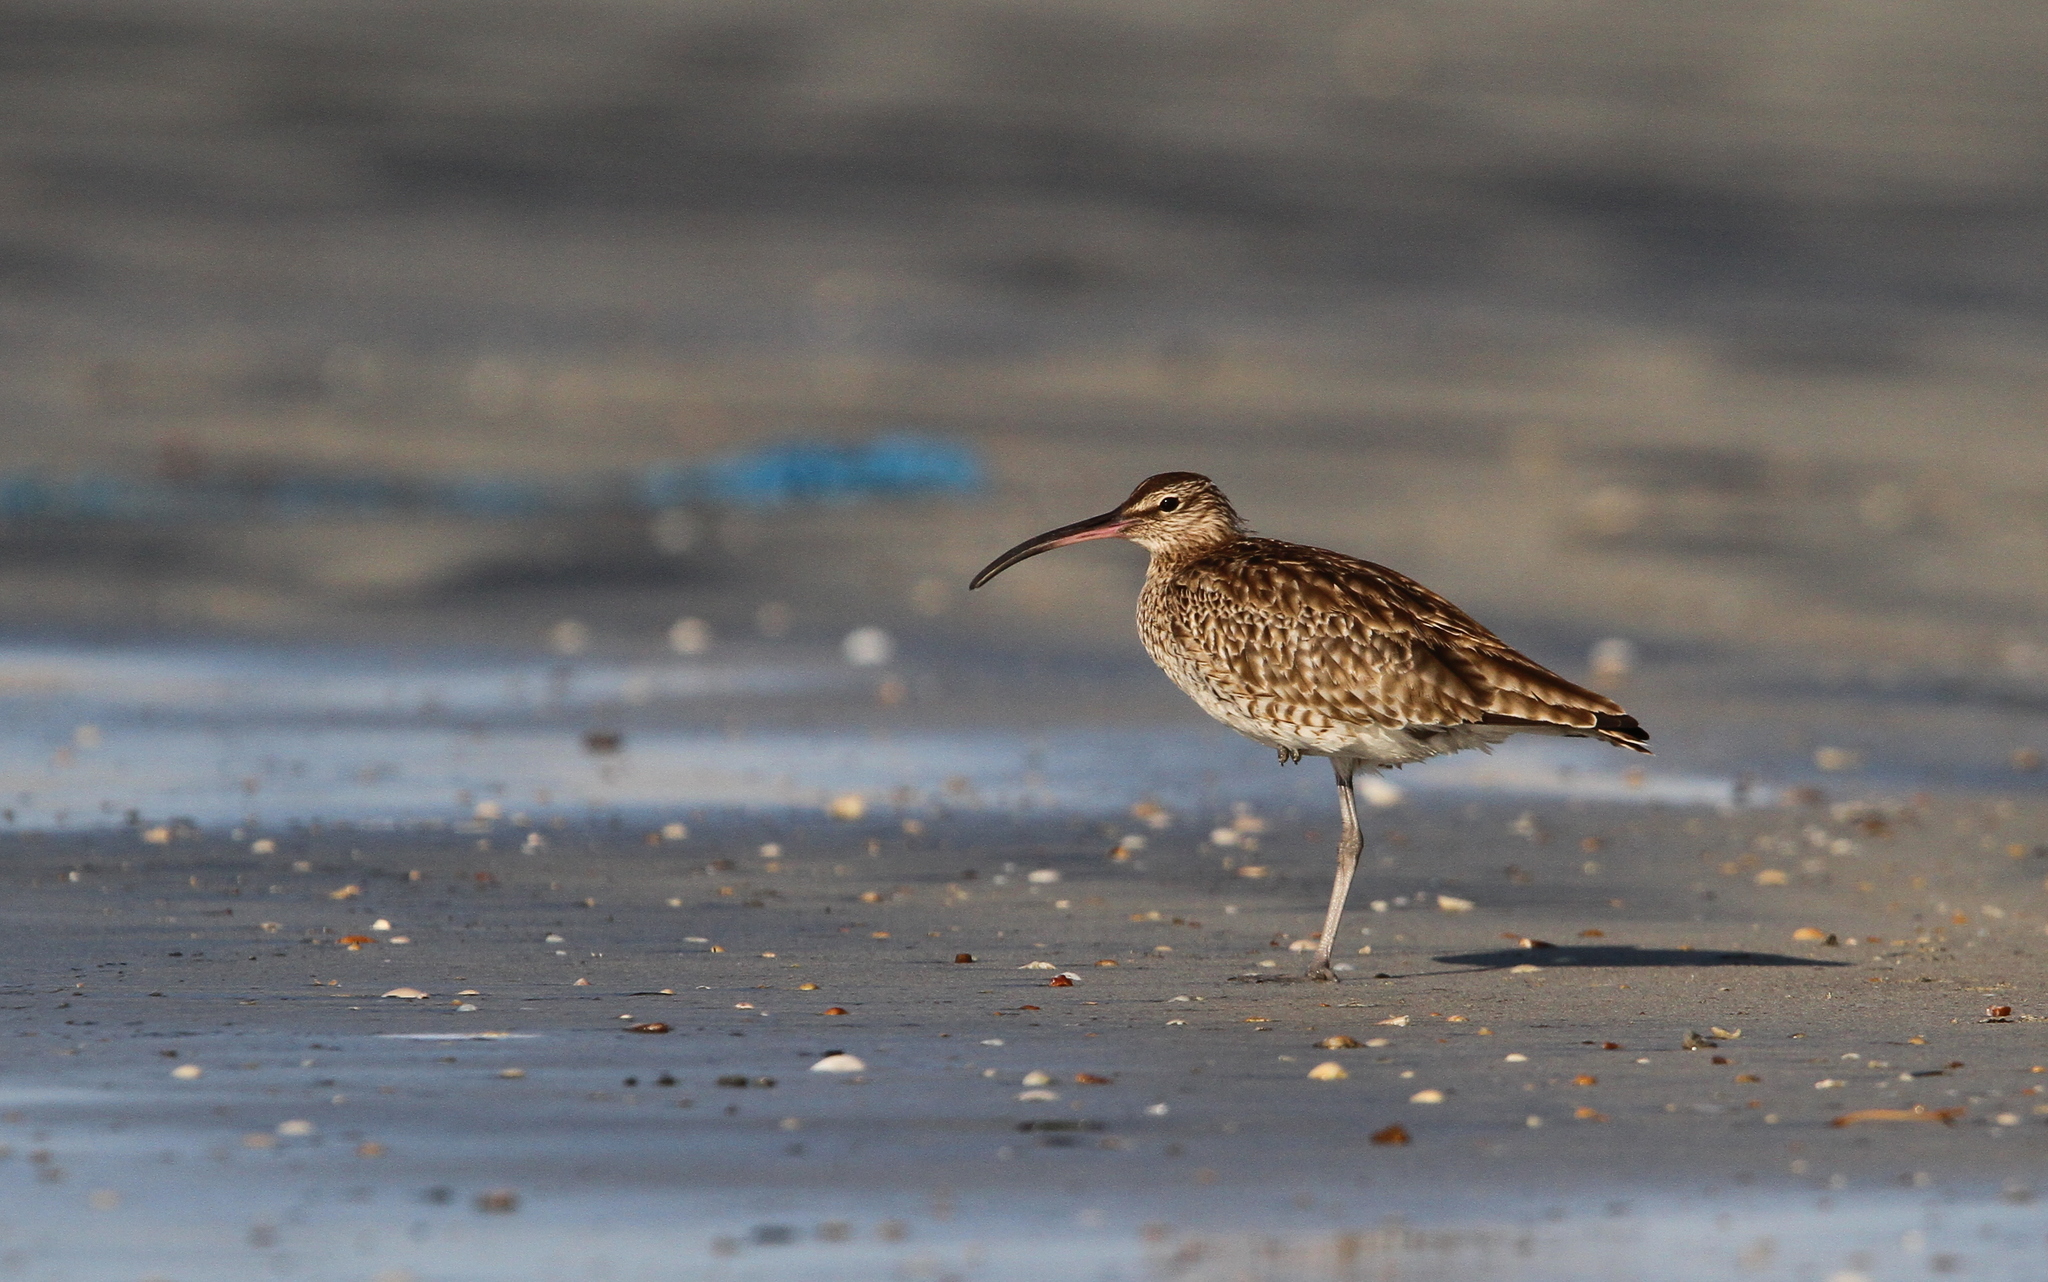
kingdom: Animalia
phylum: Chordata
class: Aves
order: Charadriiformes
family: Scolopacidae
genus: Numenius
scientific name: Numenius phaeopus
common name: Whimbrel
